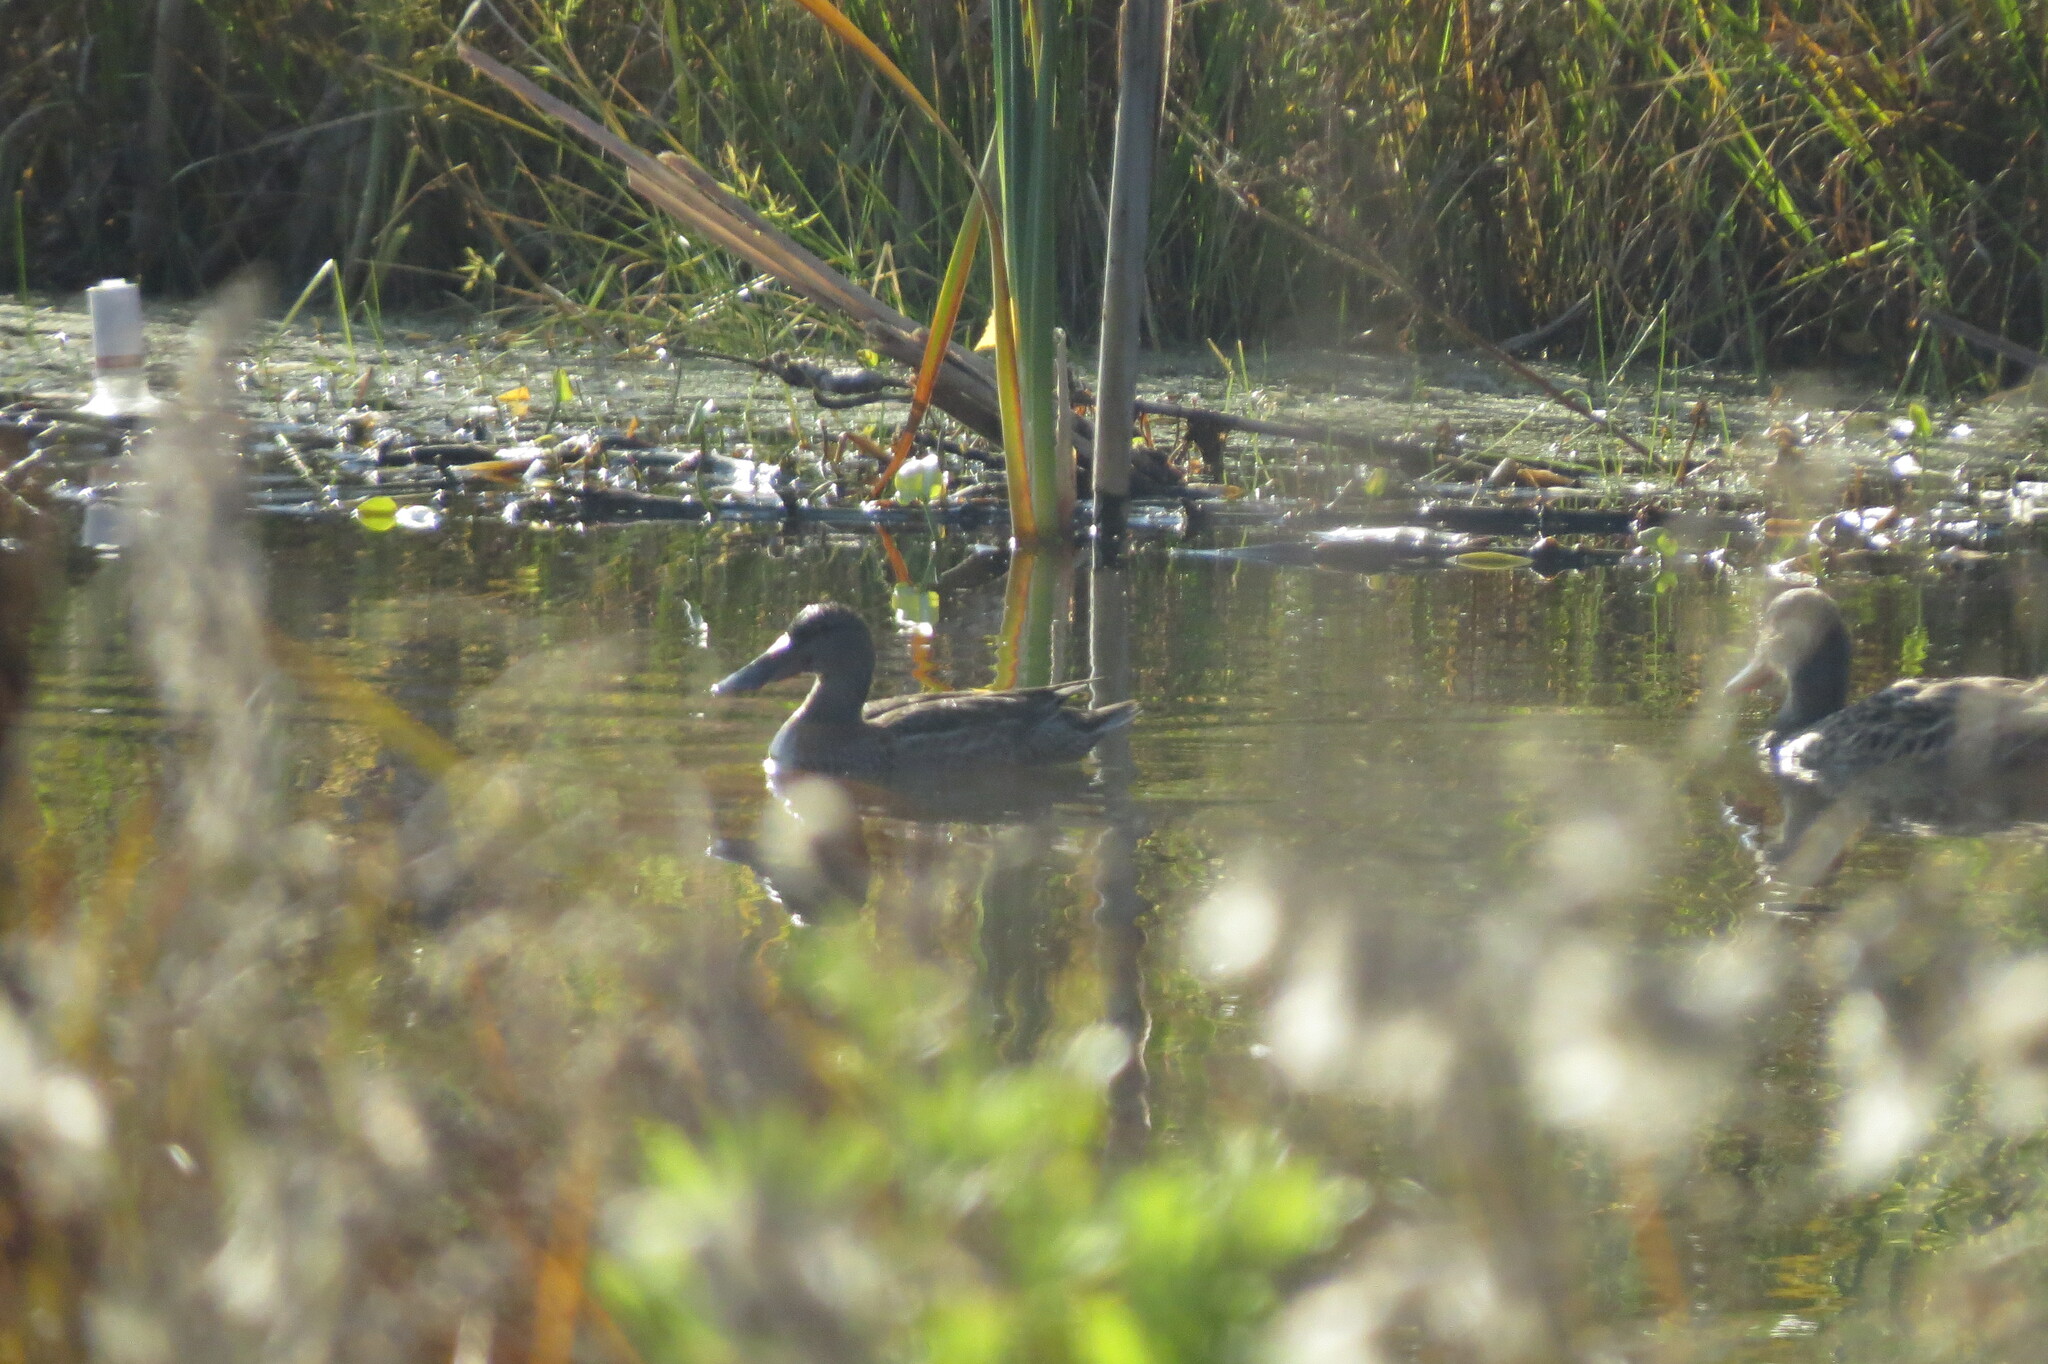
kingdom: Animalia
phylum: Chordata
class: Aves
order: Anseriformes
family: Anatidae
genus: Spatula
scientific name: Spatula clypeata
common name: Northern shoveler
